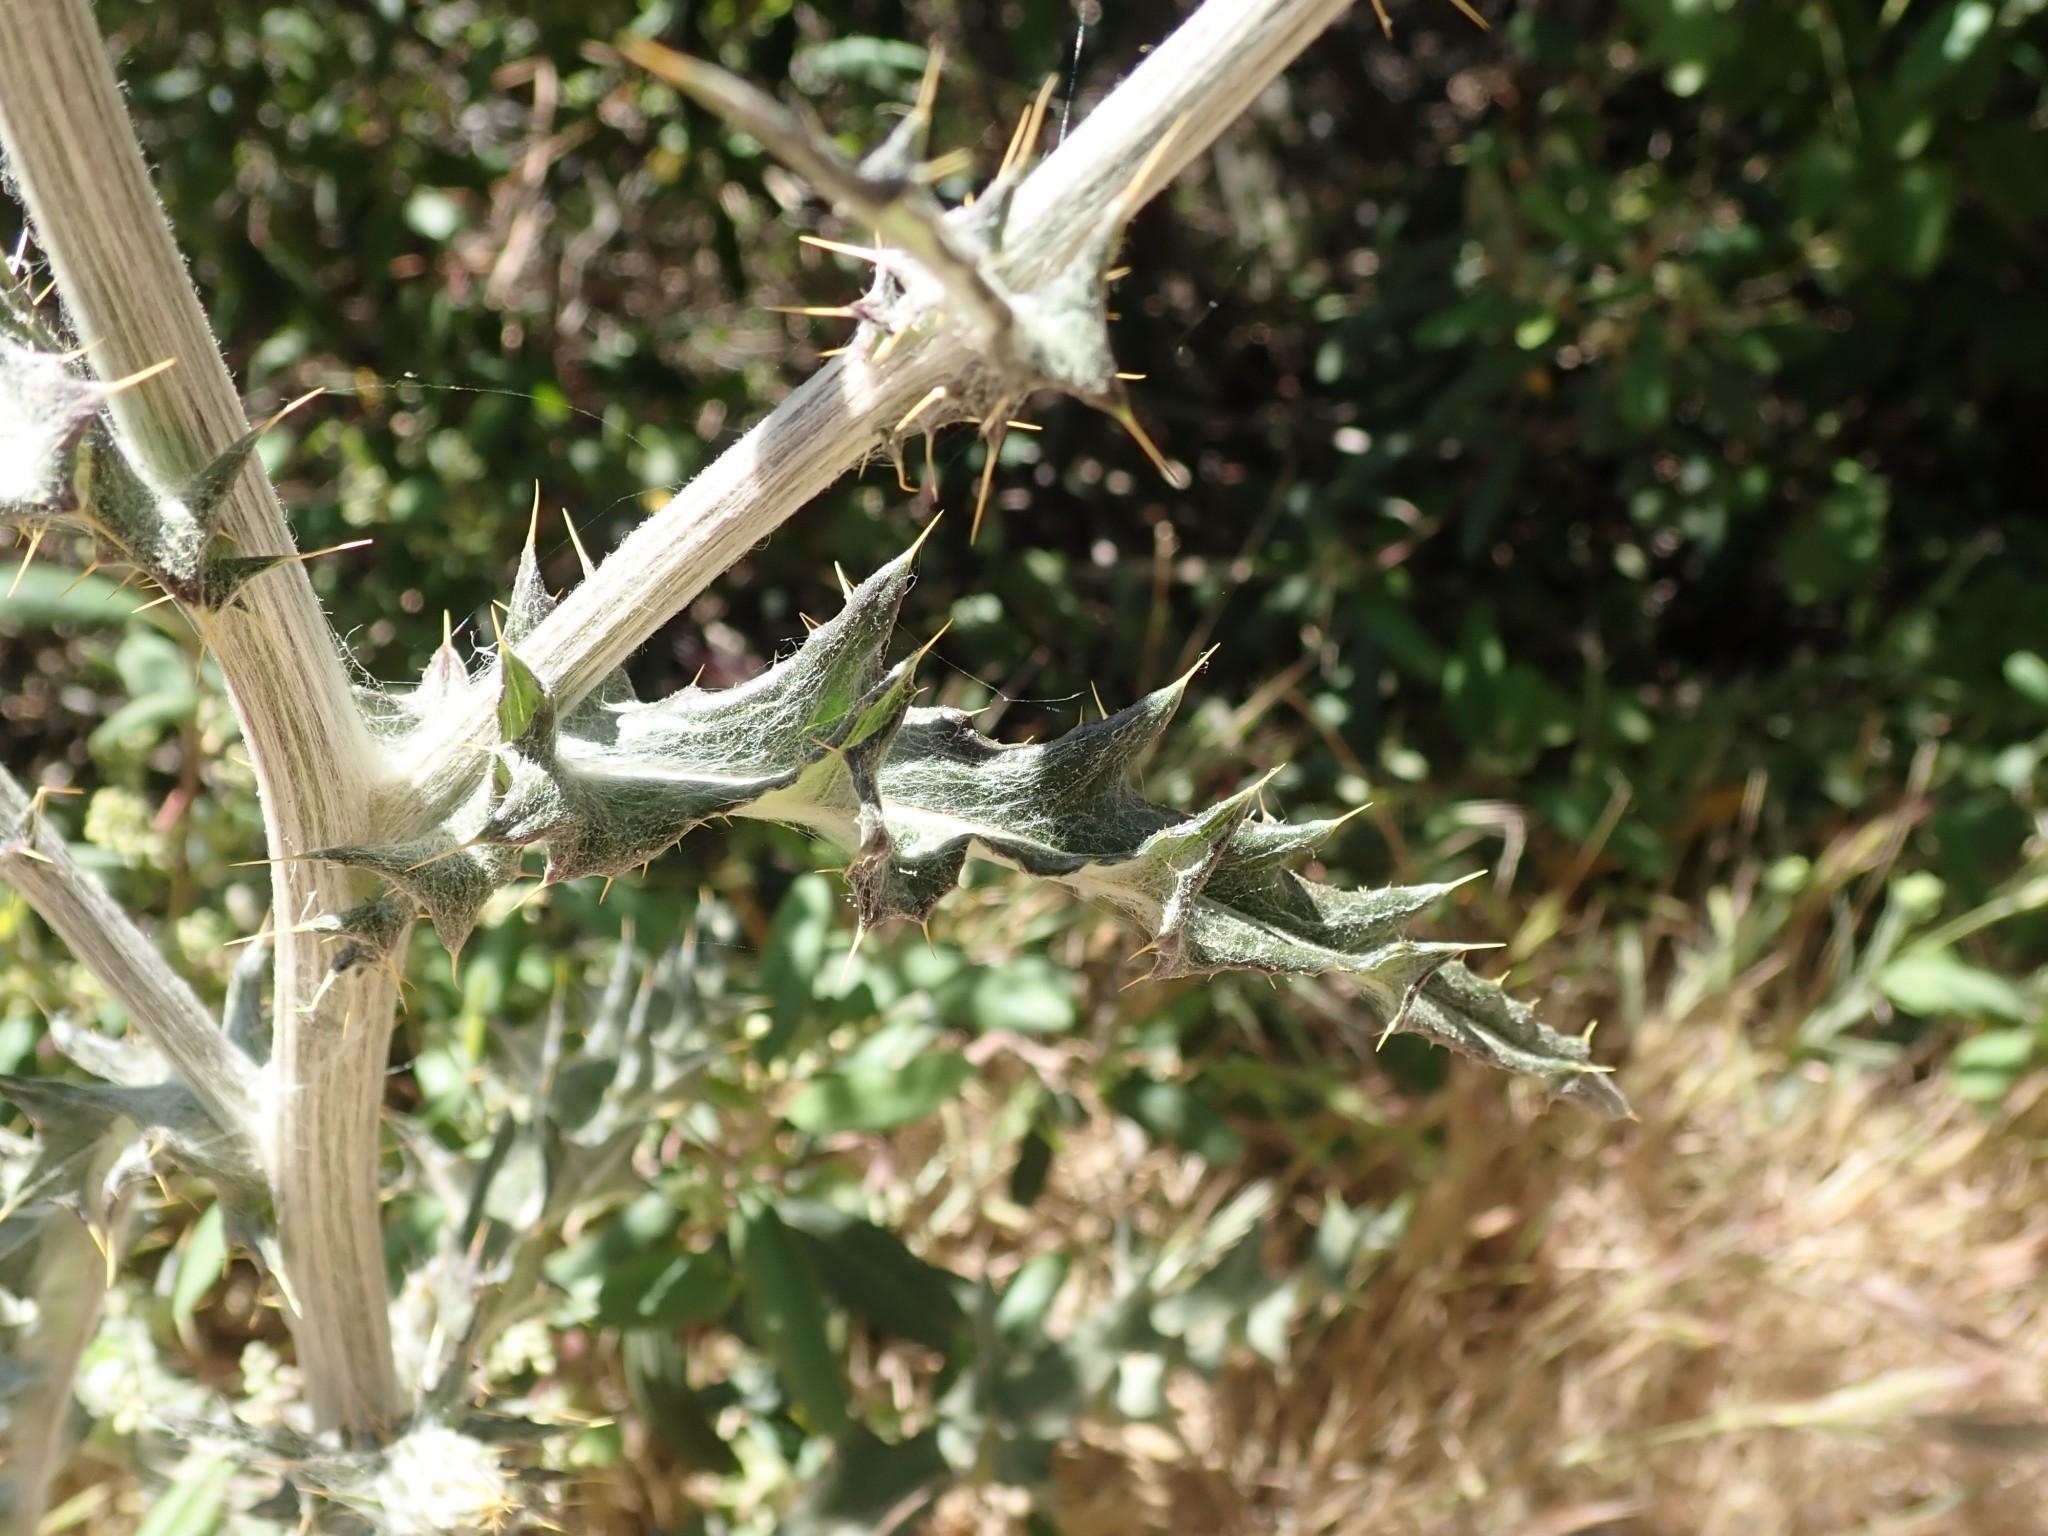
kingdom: Plantae
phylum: Tracheophyta
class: Magnoliopsida
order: Asterales
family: Asteraceae
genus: Cirsium
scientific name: Cirsium occidentale
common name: Western thistle
